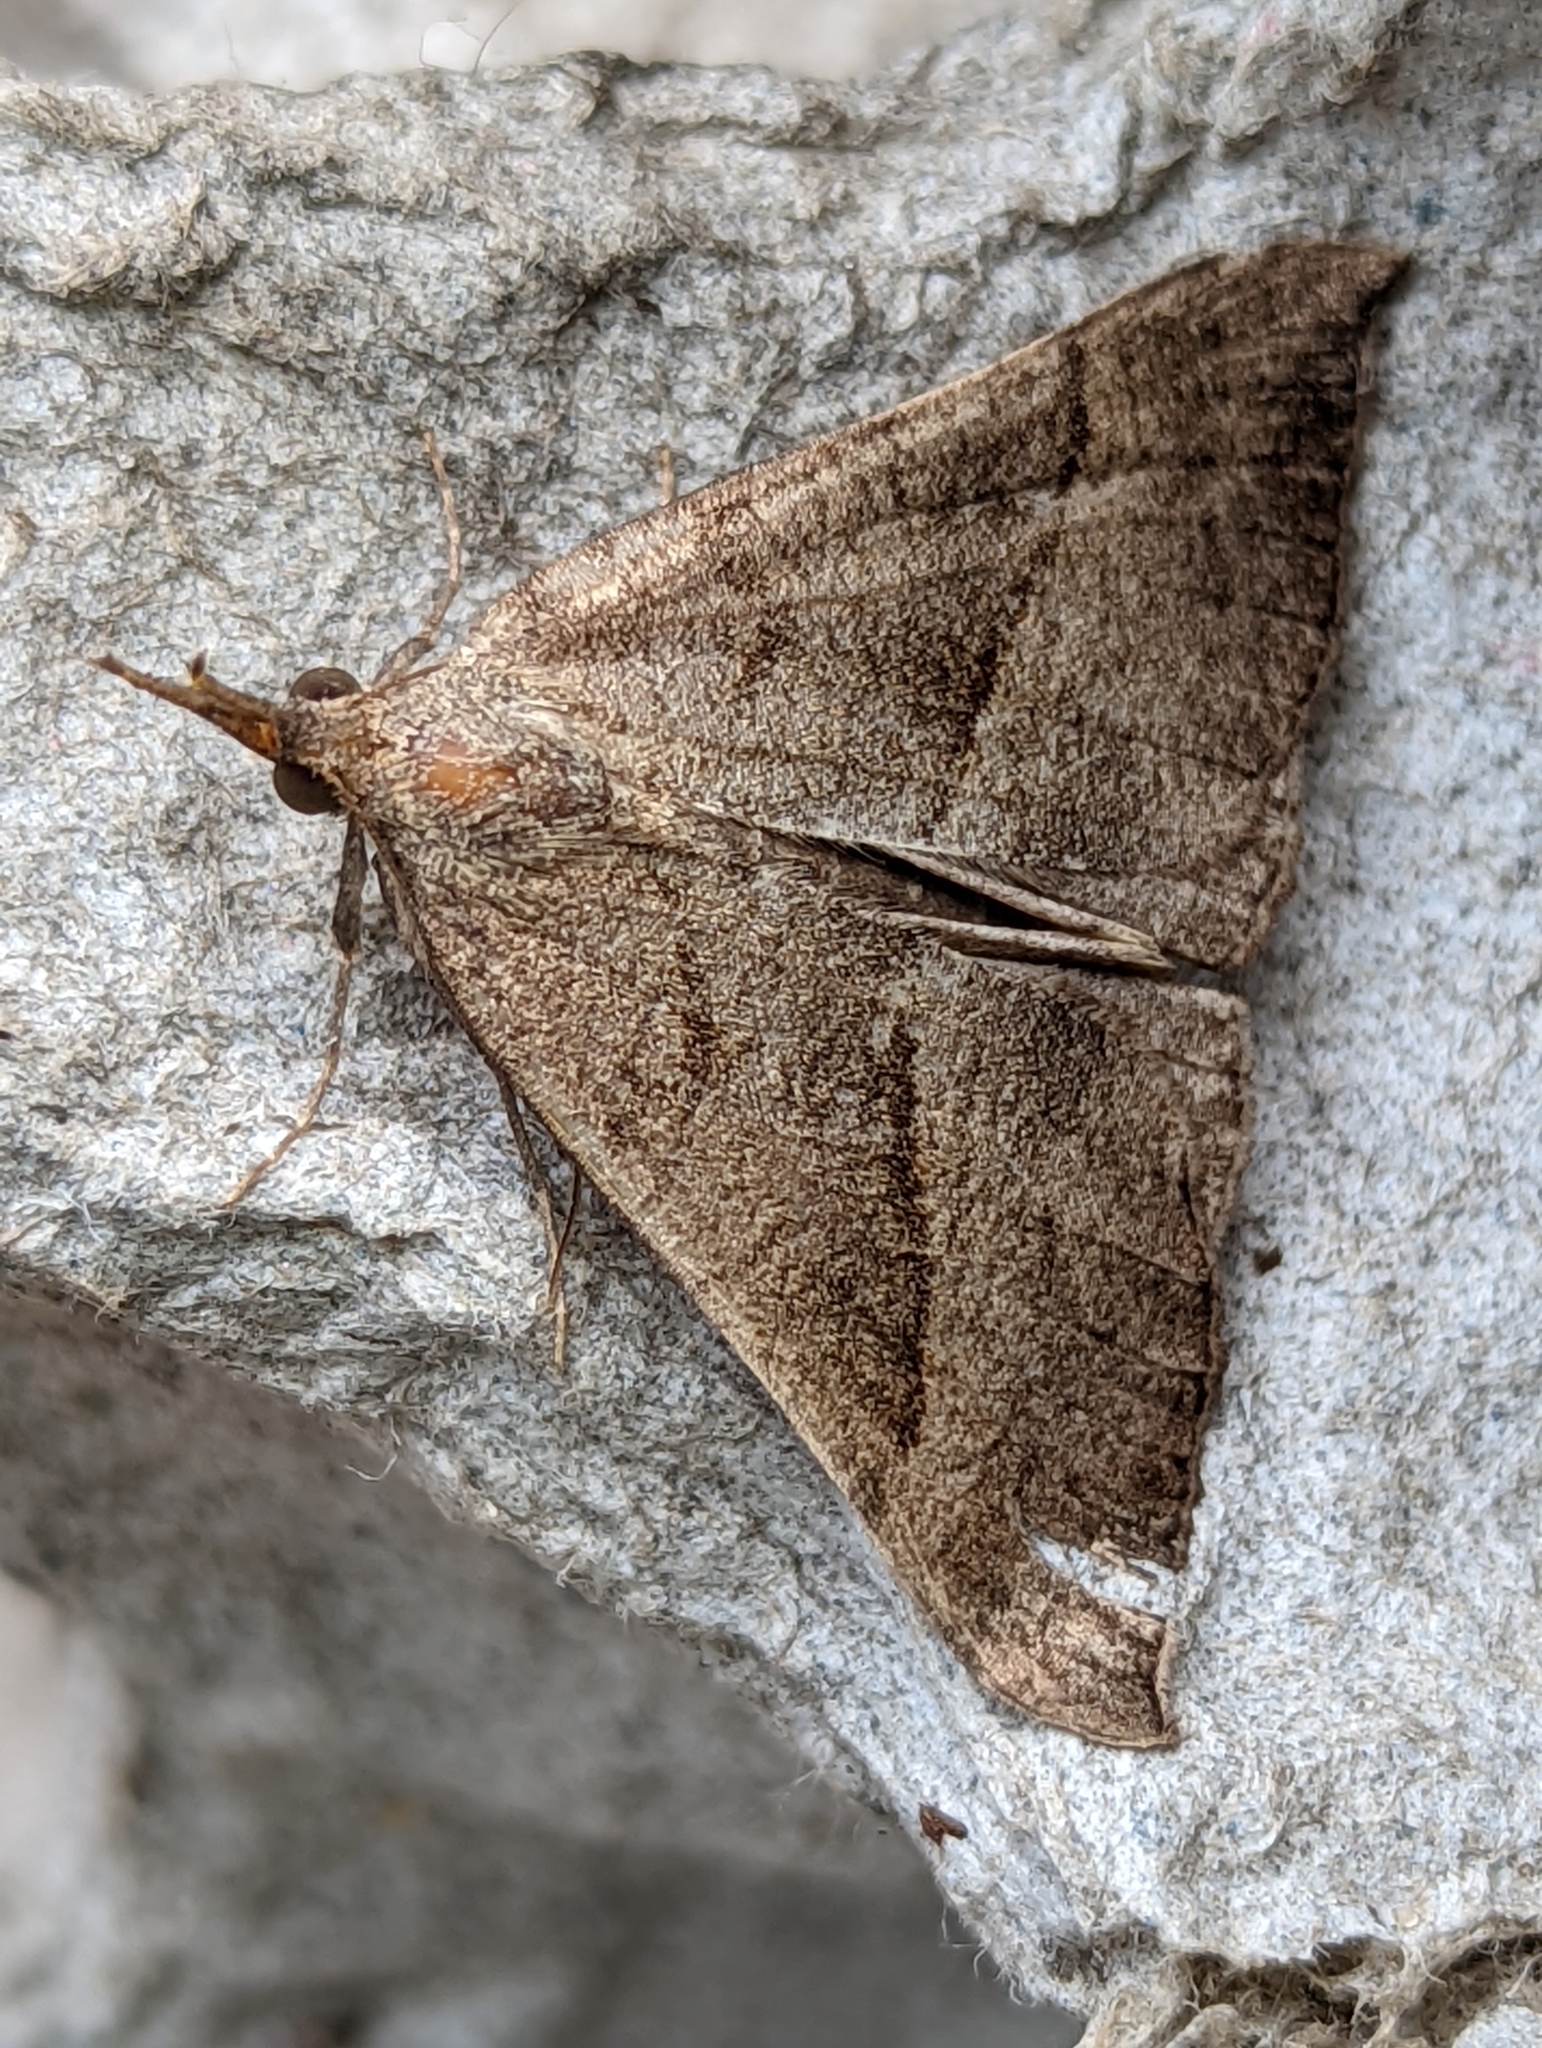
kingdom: Animalia
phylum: Arthropoda
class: Insecta
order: Lepidoptera
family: Erebidae
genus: Hypena
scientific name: Hypena proboscidalis
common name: Snout
